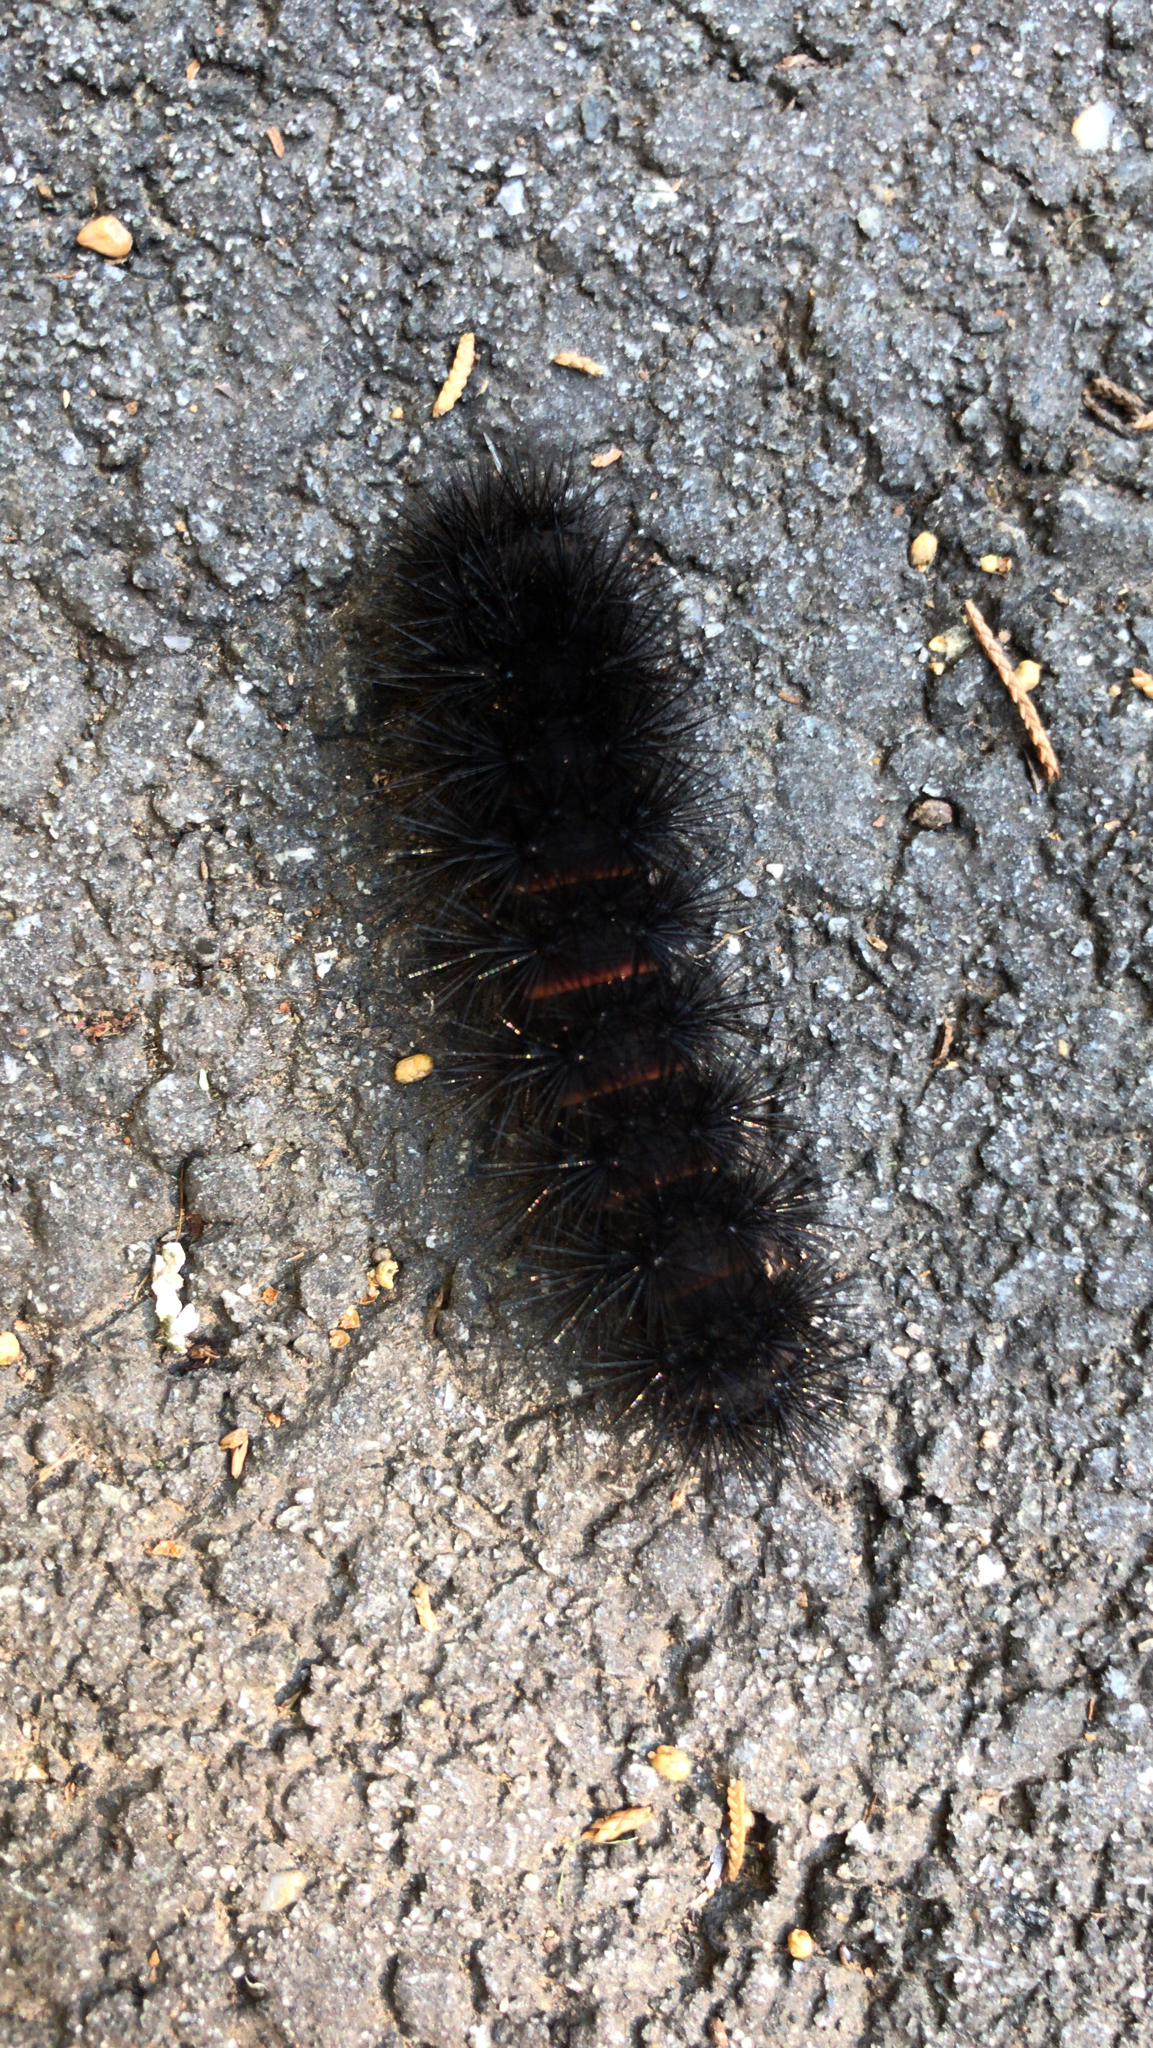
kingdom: Animalia
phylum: Arthropoda
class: Insecta
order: Lepidoptera
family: Erebidae
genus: Hypercompe
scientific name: Hypercompe scribonia
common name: Giant leopard moth
